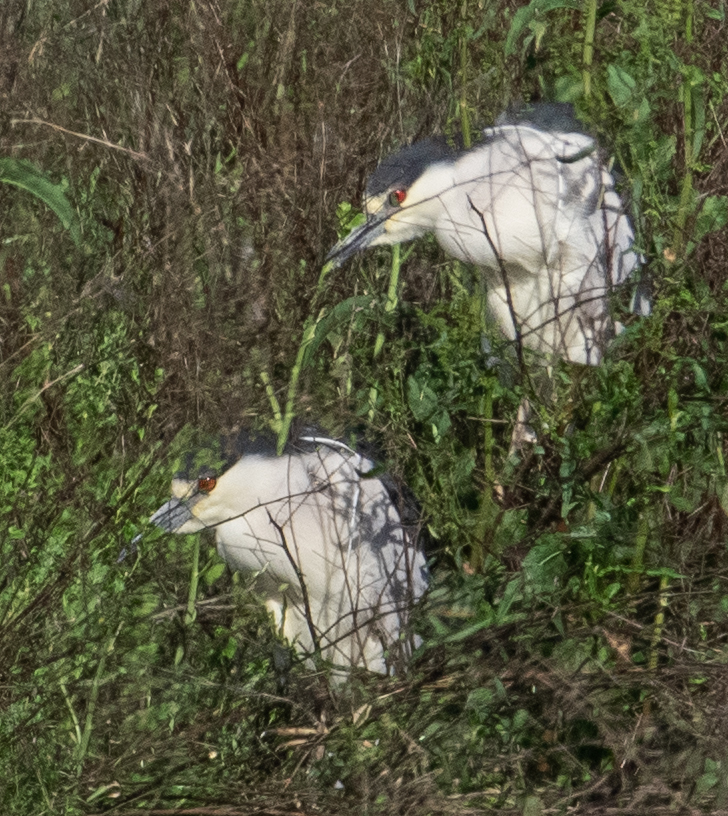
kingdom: Animalia
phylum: Chordata
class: Aves
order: Pelecaniformes
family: Ardeidae
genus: Nycticorax
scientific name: Nycticorax nycticorax
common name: Black-crowned night heron
